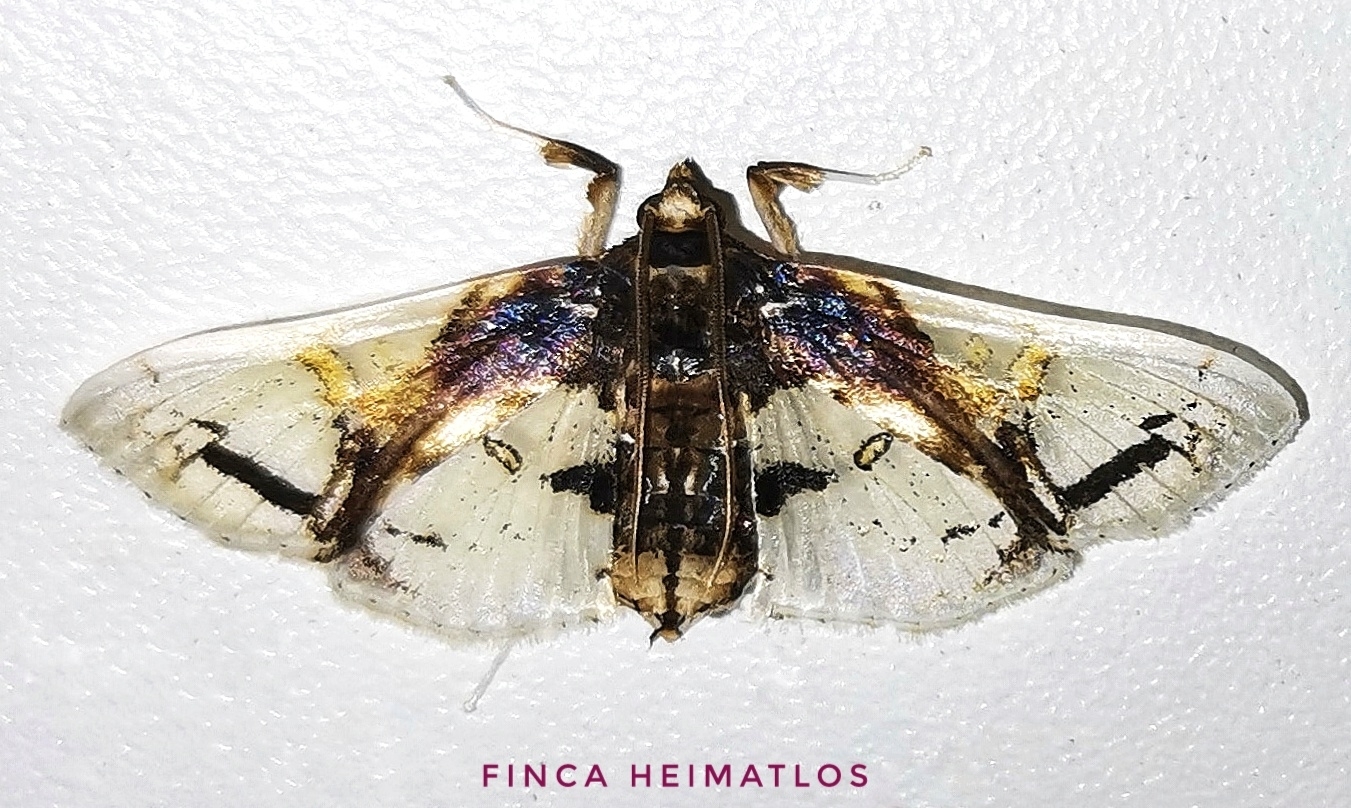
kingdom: Animalia
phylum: Arthropoda
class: Insecta
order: Lepidoptera
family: Crambidae
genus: Compacta
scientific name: Compacta nigrolinealis
